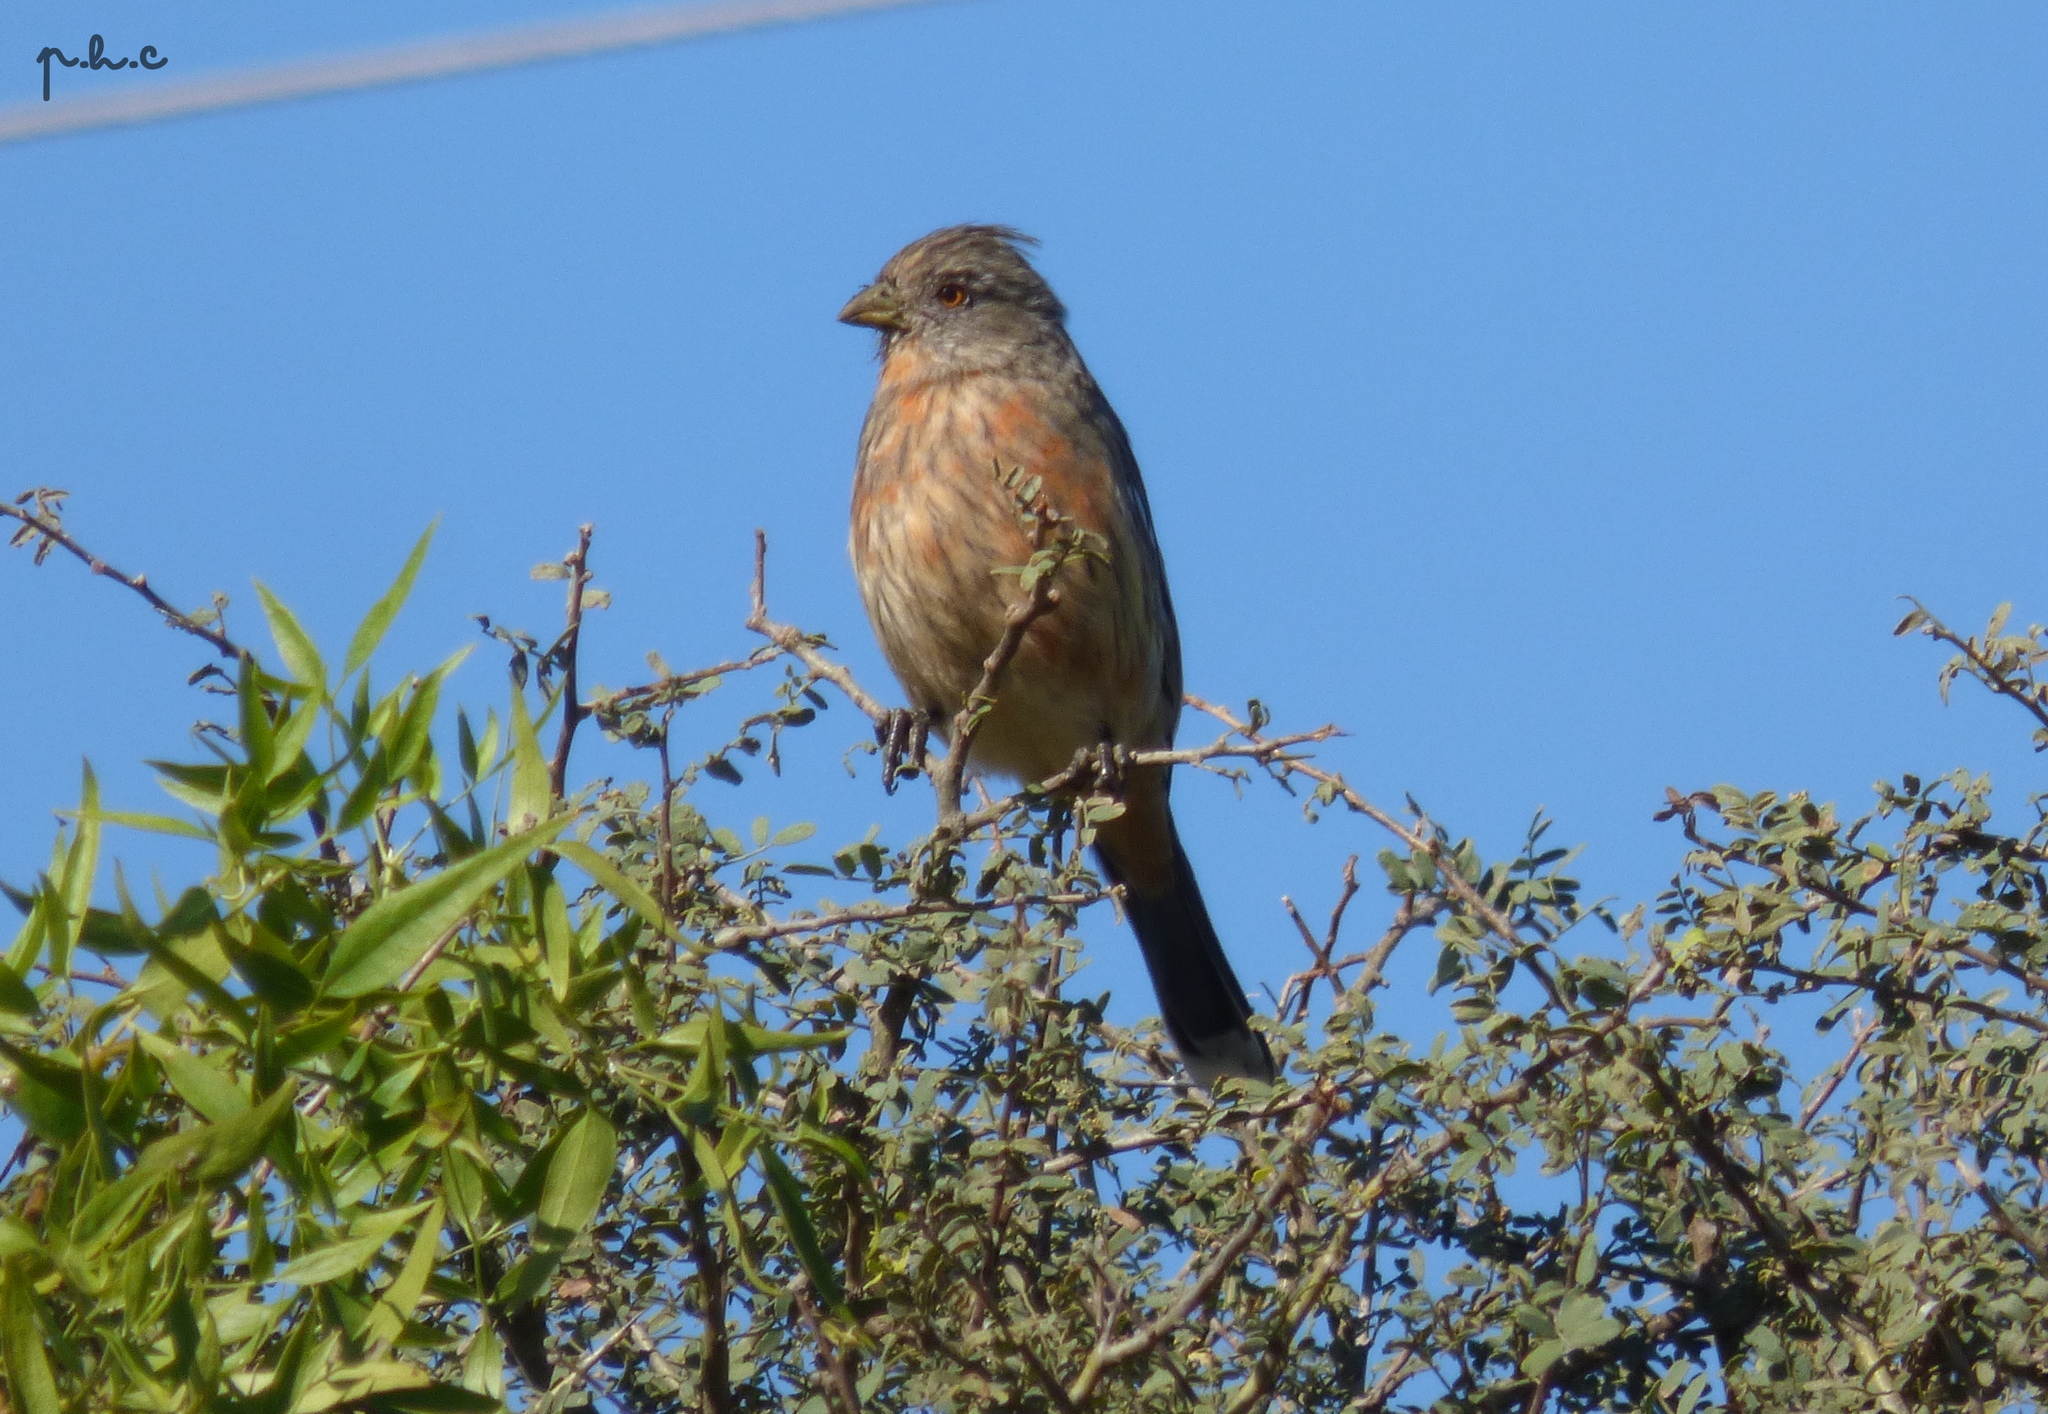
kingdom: Animalia
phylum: Chordata
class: Aves
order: Passeriformes
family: Cotingidae
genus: Phytotoma
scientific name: Phytotoma rutila
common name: White-tipped plantcutter
